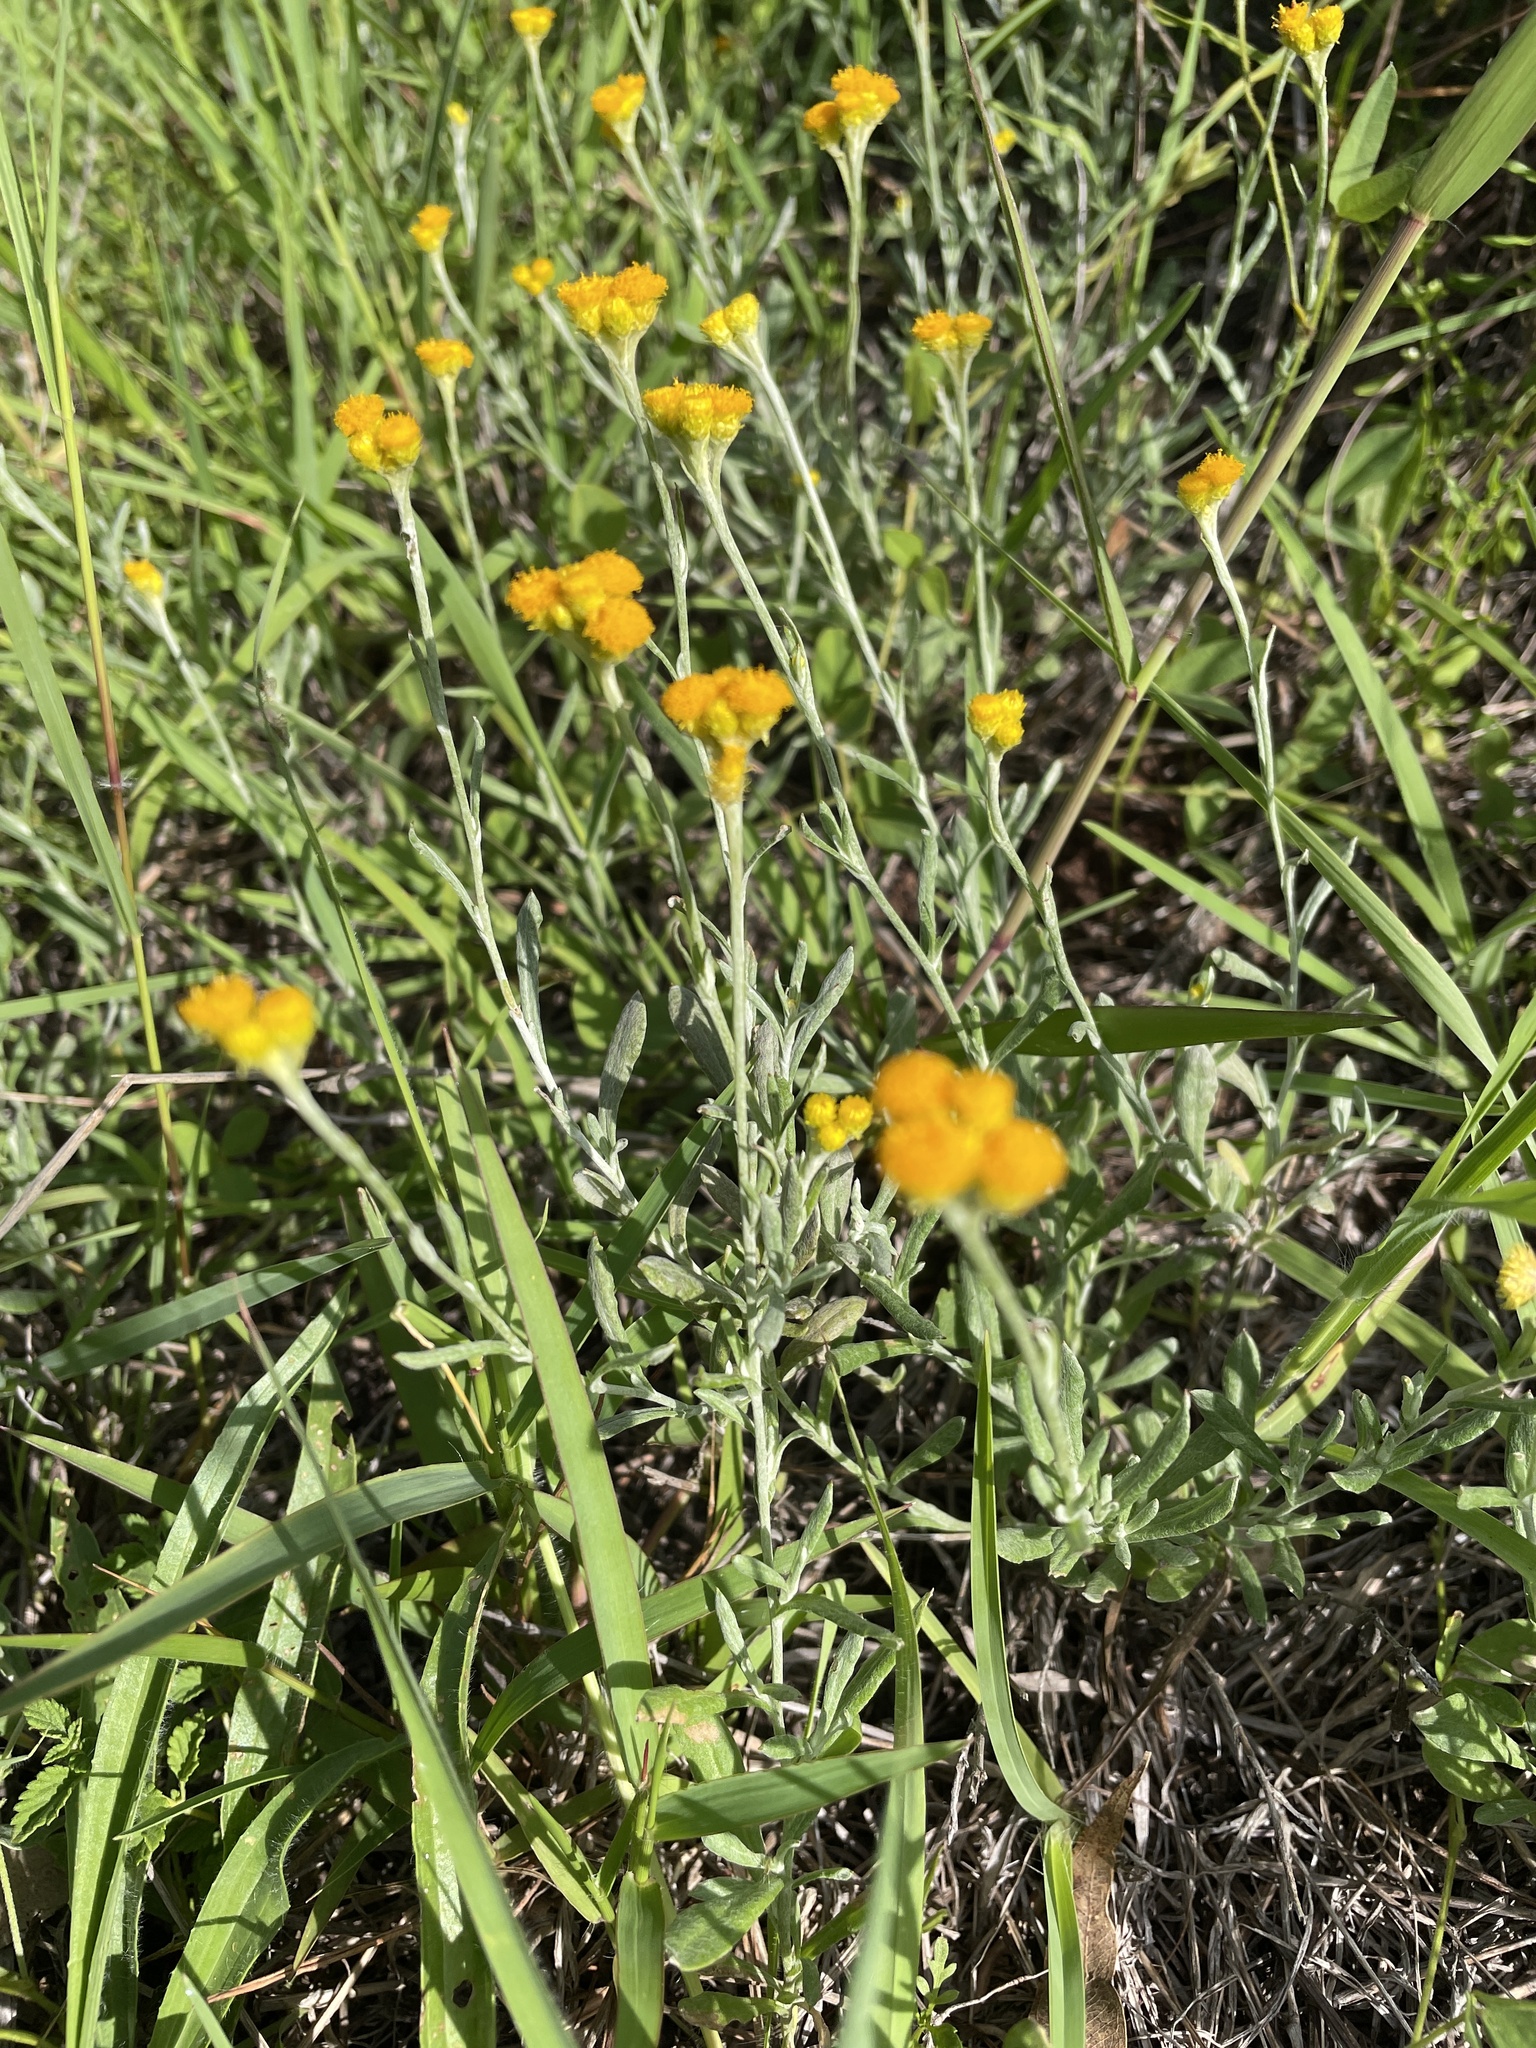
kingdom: Plantae
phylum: Tracheophyta
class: Magnoliopsida
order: Asterales
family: Asteraceae
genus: Chrysocephalum
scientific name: Chrysocephalum apiculatum
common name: Common everlasting
